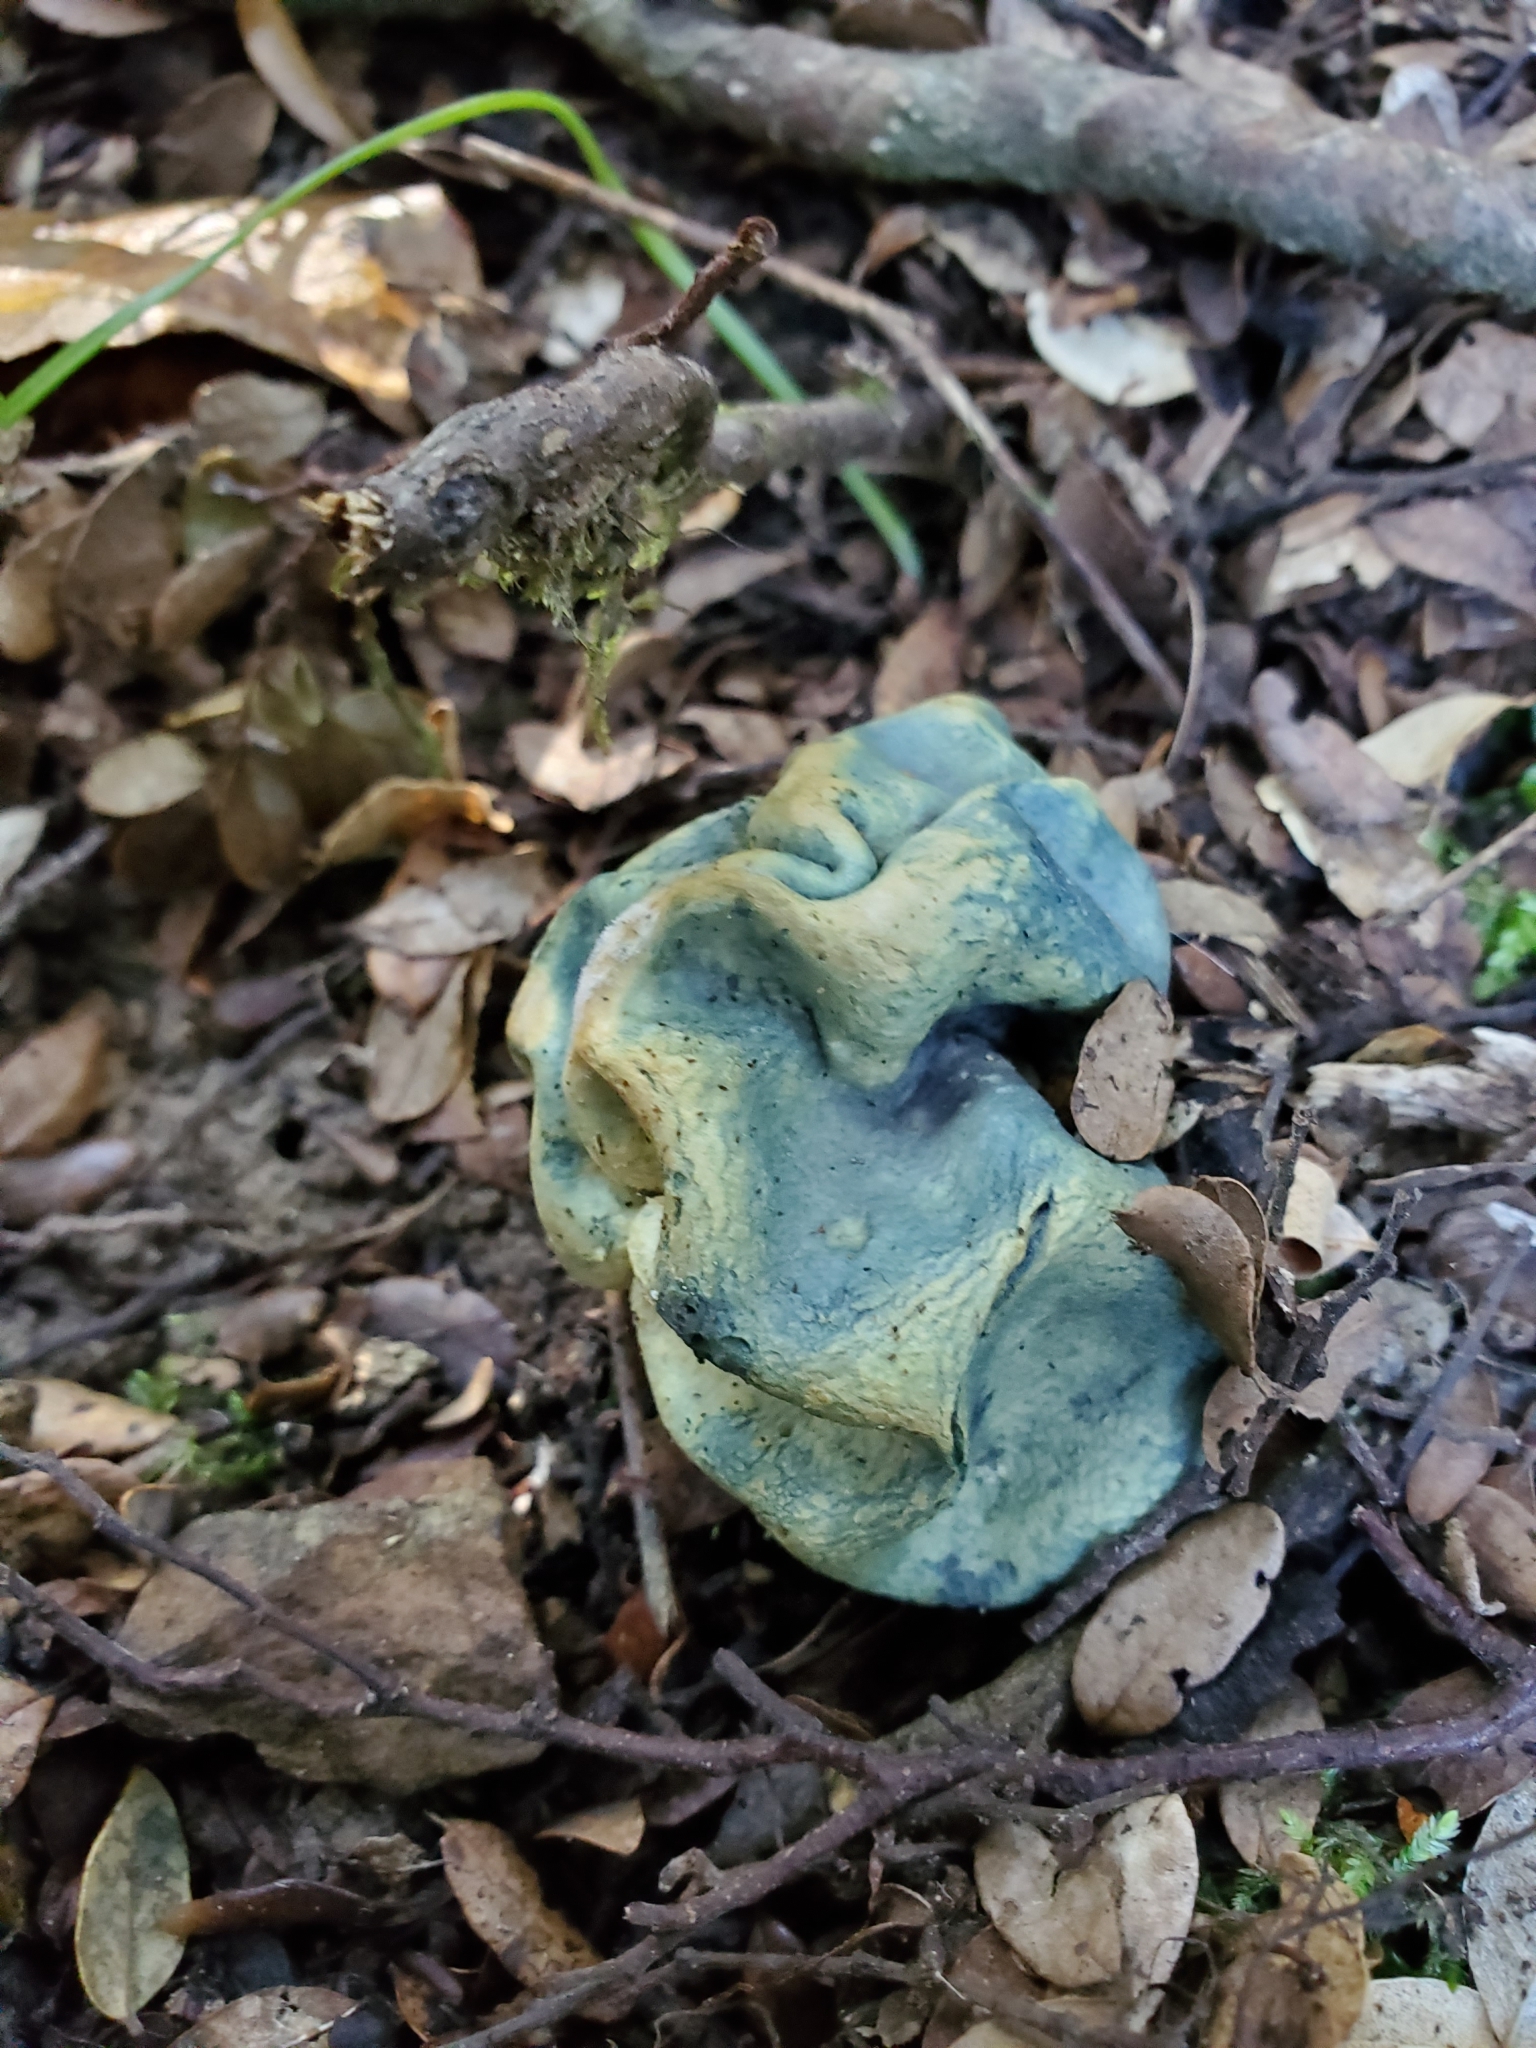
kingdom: Fungi
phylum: Basidiomycota
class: Agaricomycetes
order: Boletales
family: Boletaceae
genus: Leccinum
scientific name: Leccinum pachyderme
